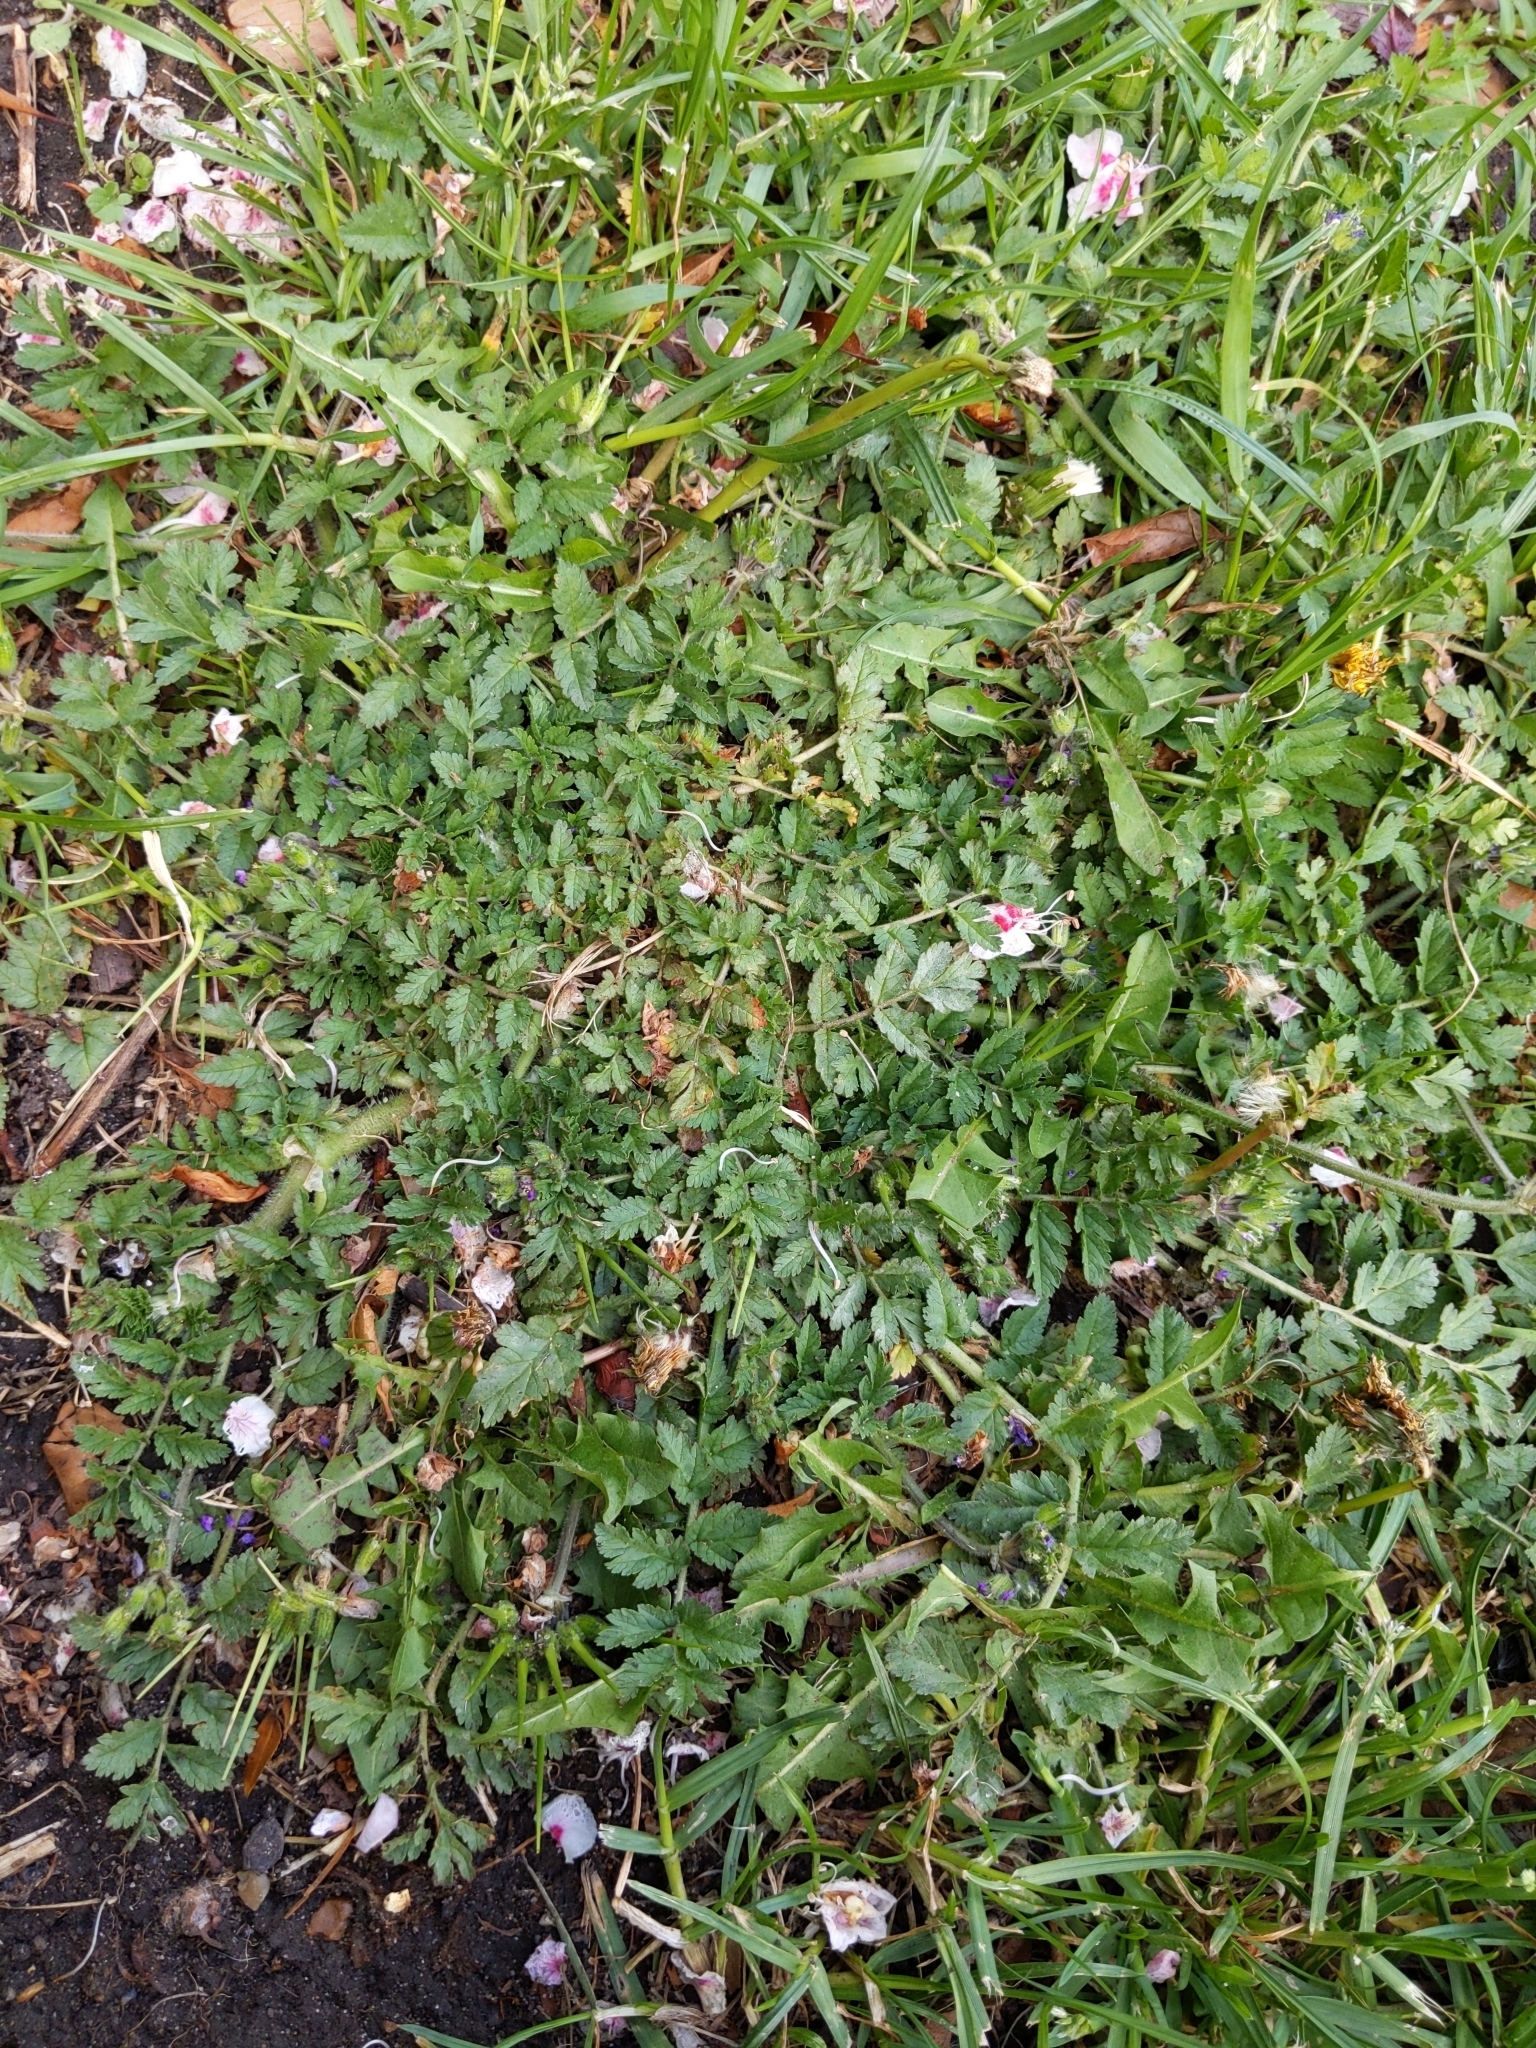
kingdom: Plantae
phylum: Tracheophyta
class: Magnoliopsida
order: Geraniales
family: Geraniaceae
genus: Erodium
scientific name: Erodium moschatum
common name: Musk stork's-bill
